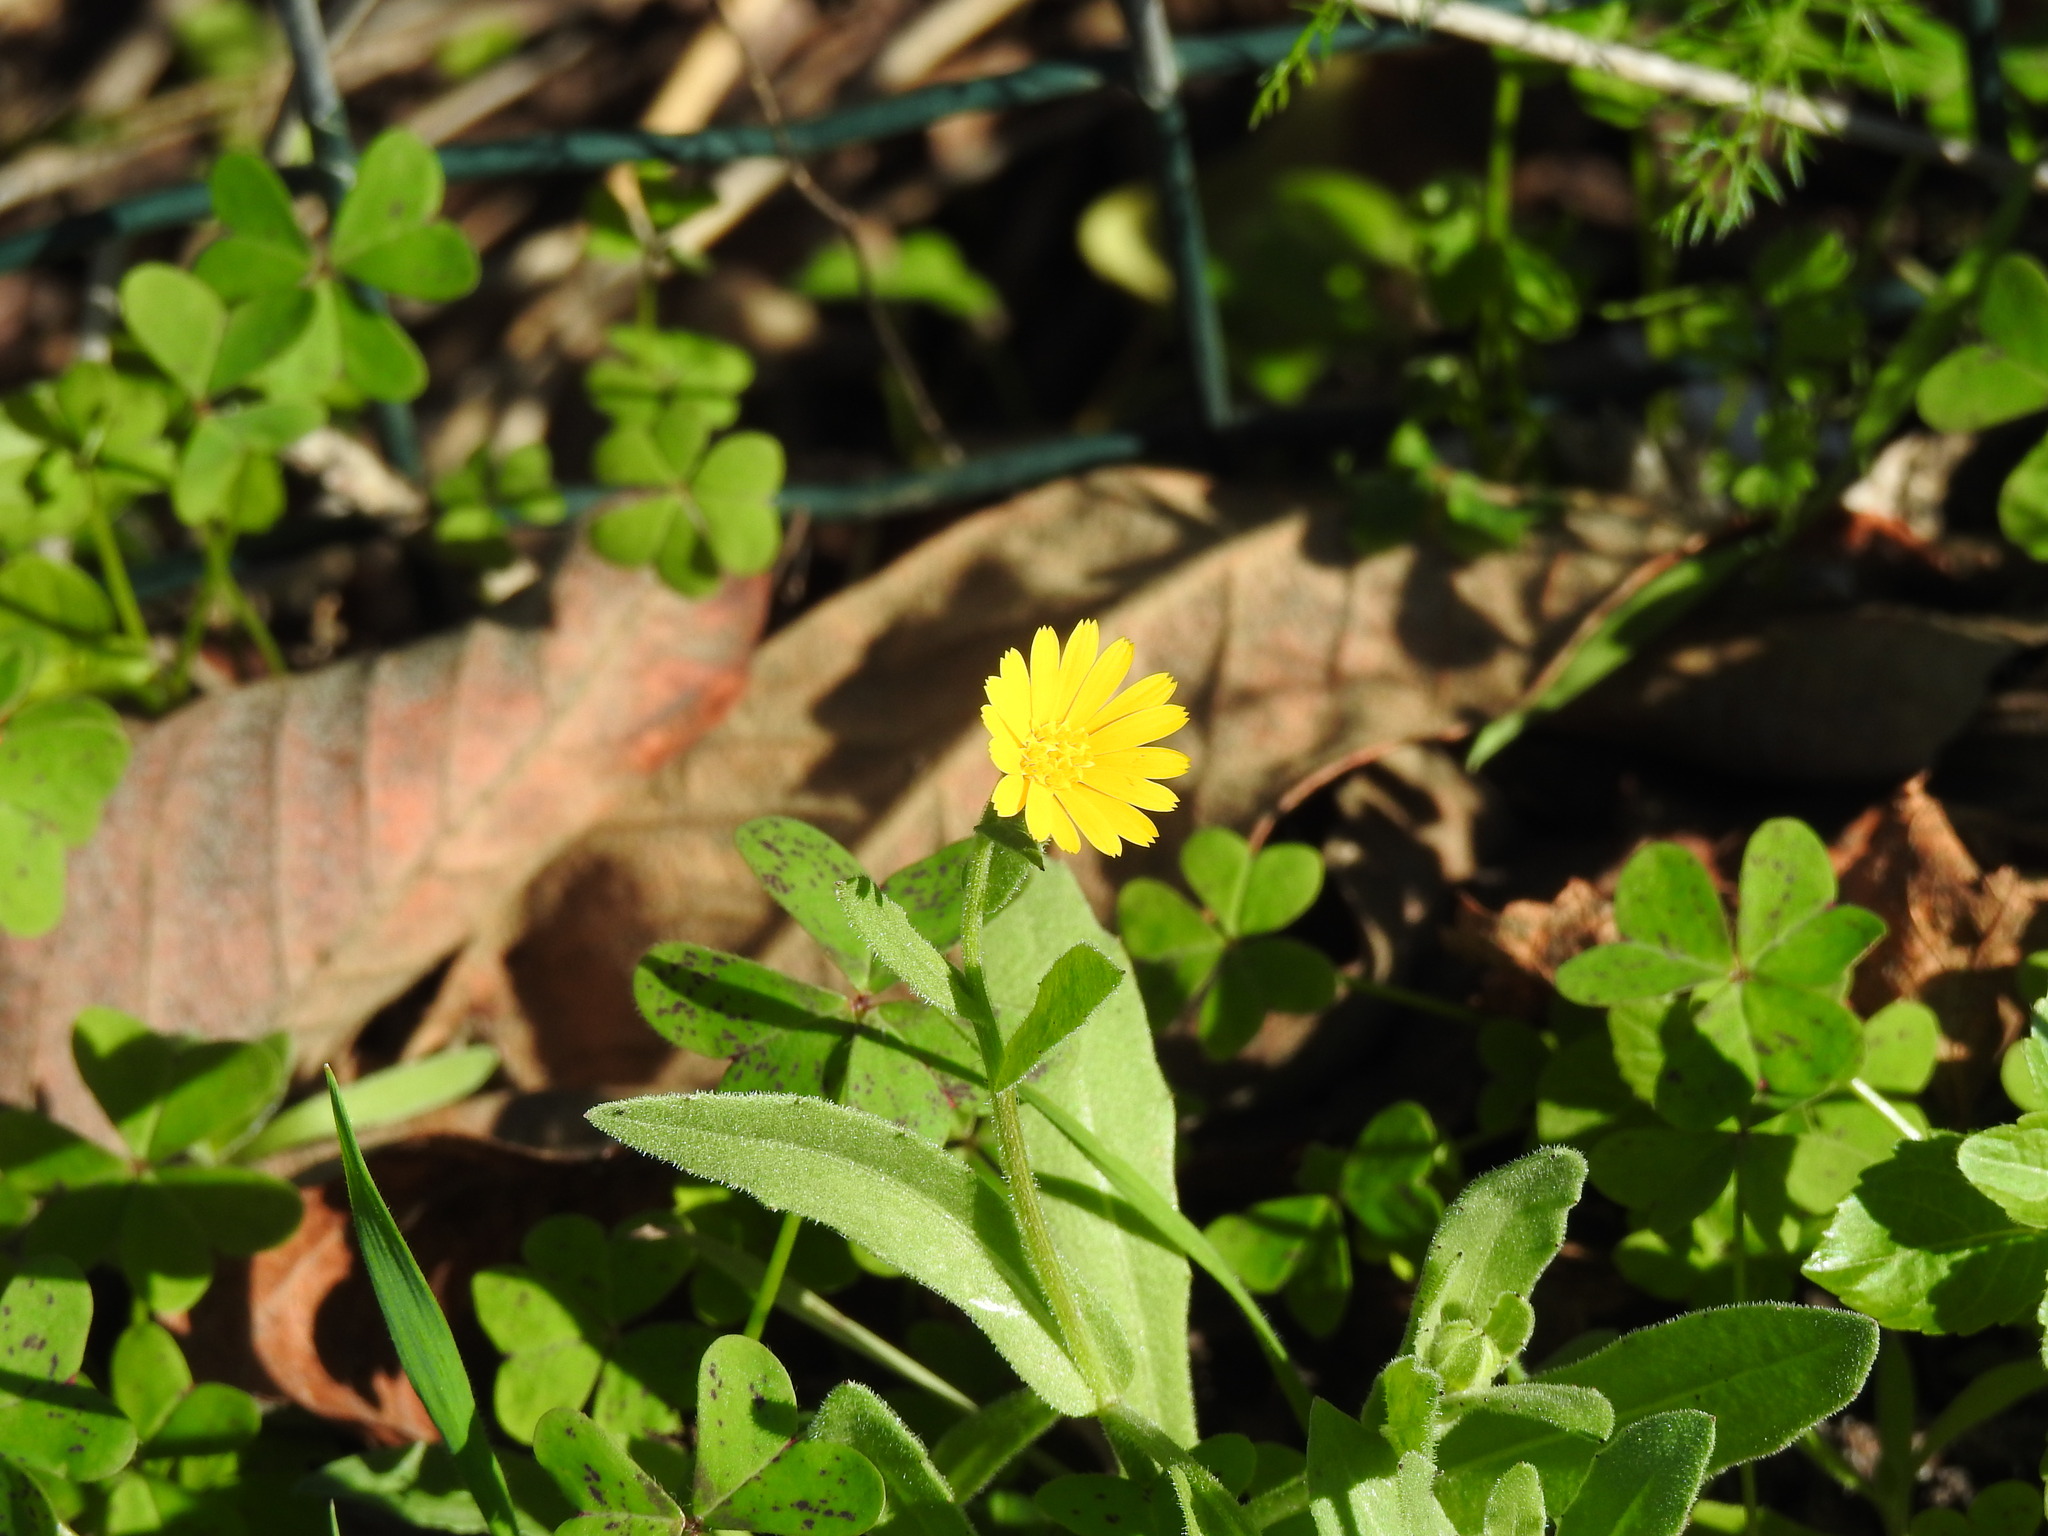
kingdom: Plantae
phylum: Tracheophyta
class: Magnoliopsida
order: Asterales
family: Asteraceae
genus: Calendula
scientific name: Calendula arvensis
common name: Field marigold
